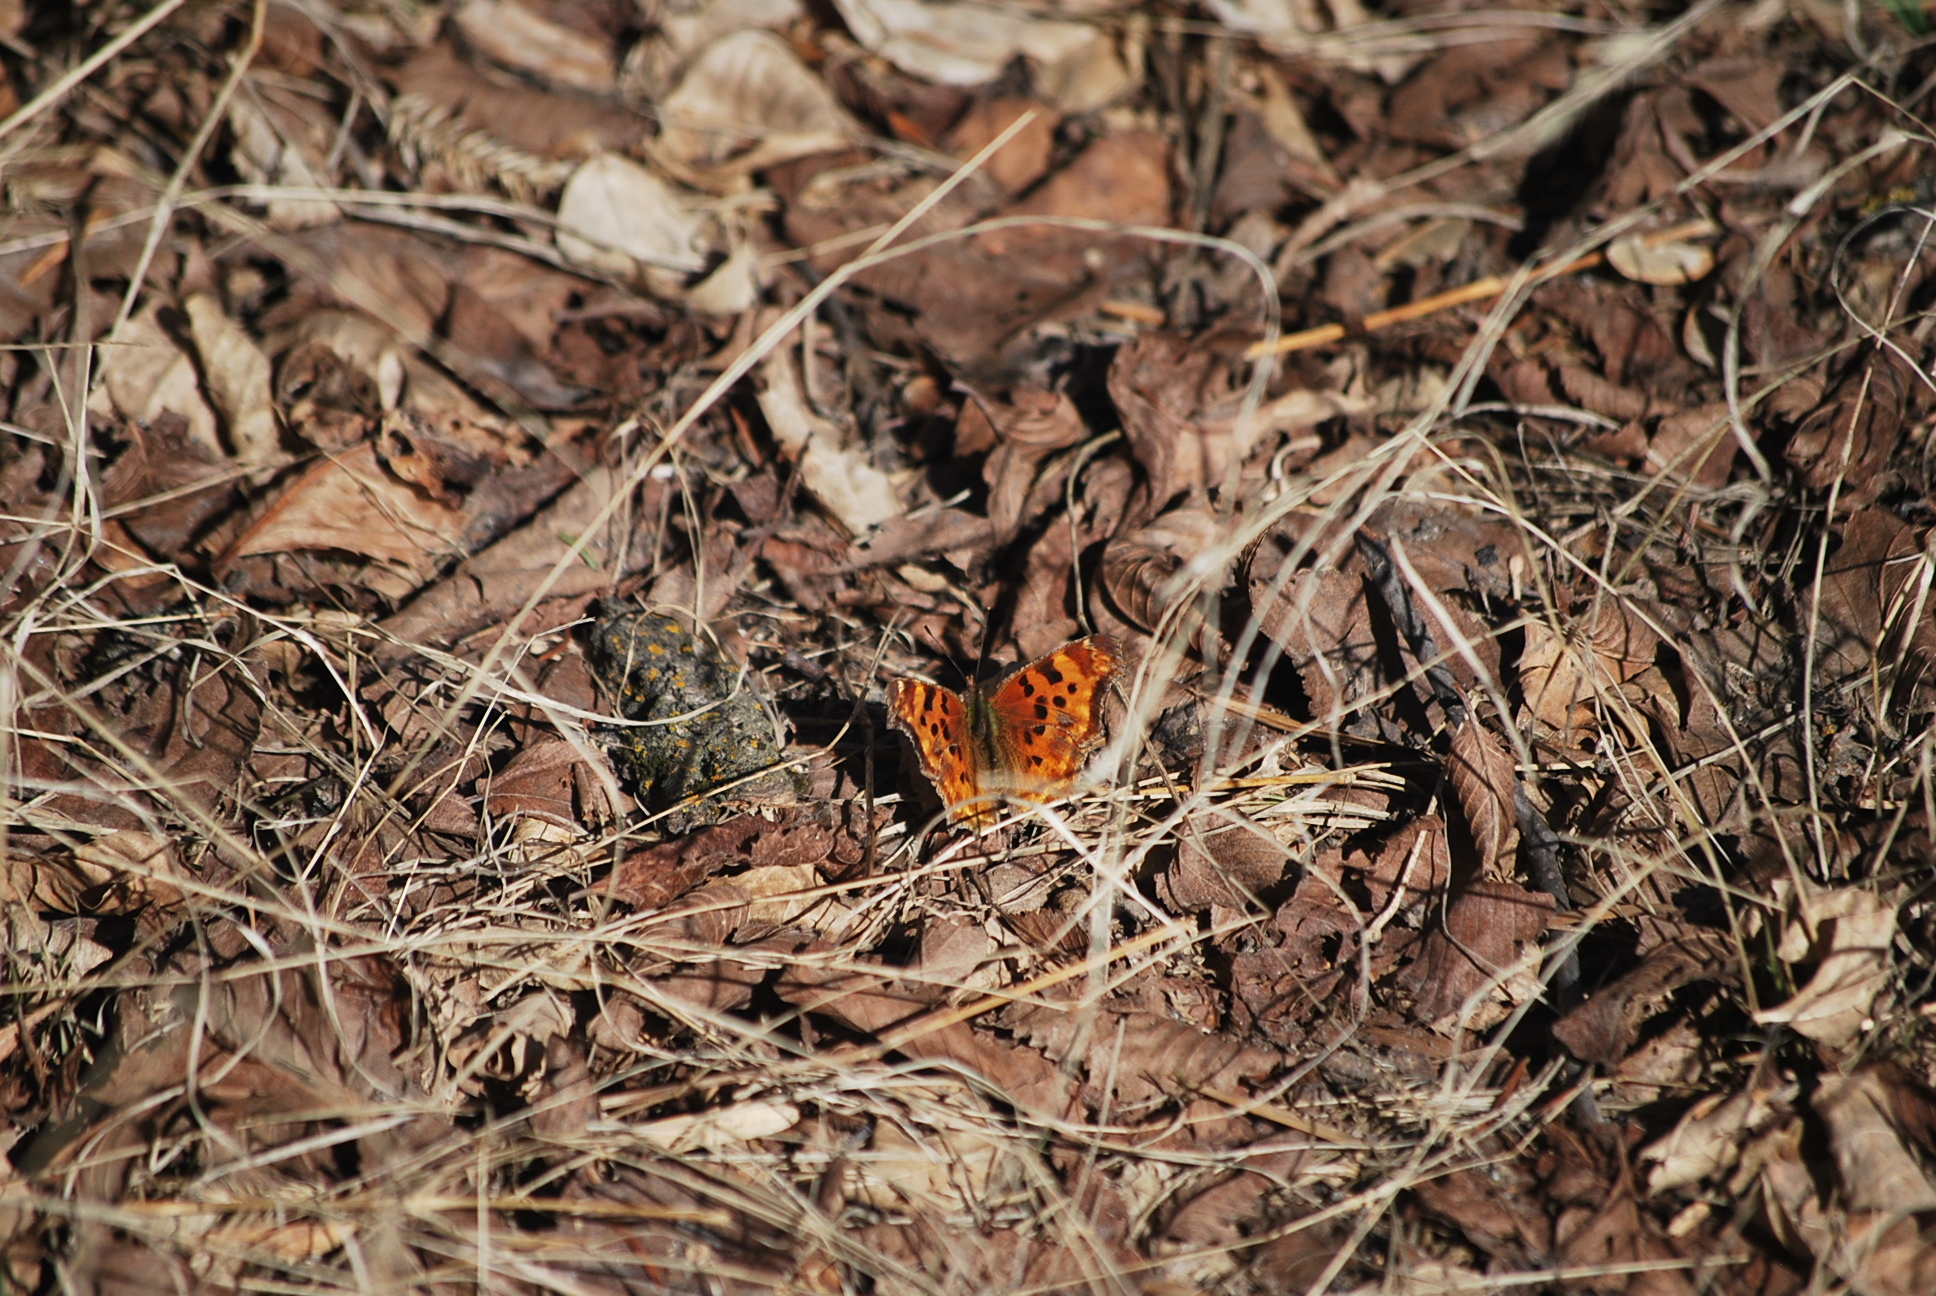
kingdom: Animalia
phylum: Arthropoda
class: Insecta
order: Lepidoptera
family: Nymphalidae
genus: Polygonia
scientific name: Polygonia satyrus
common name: Satyr angle wing
